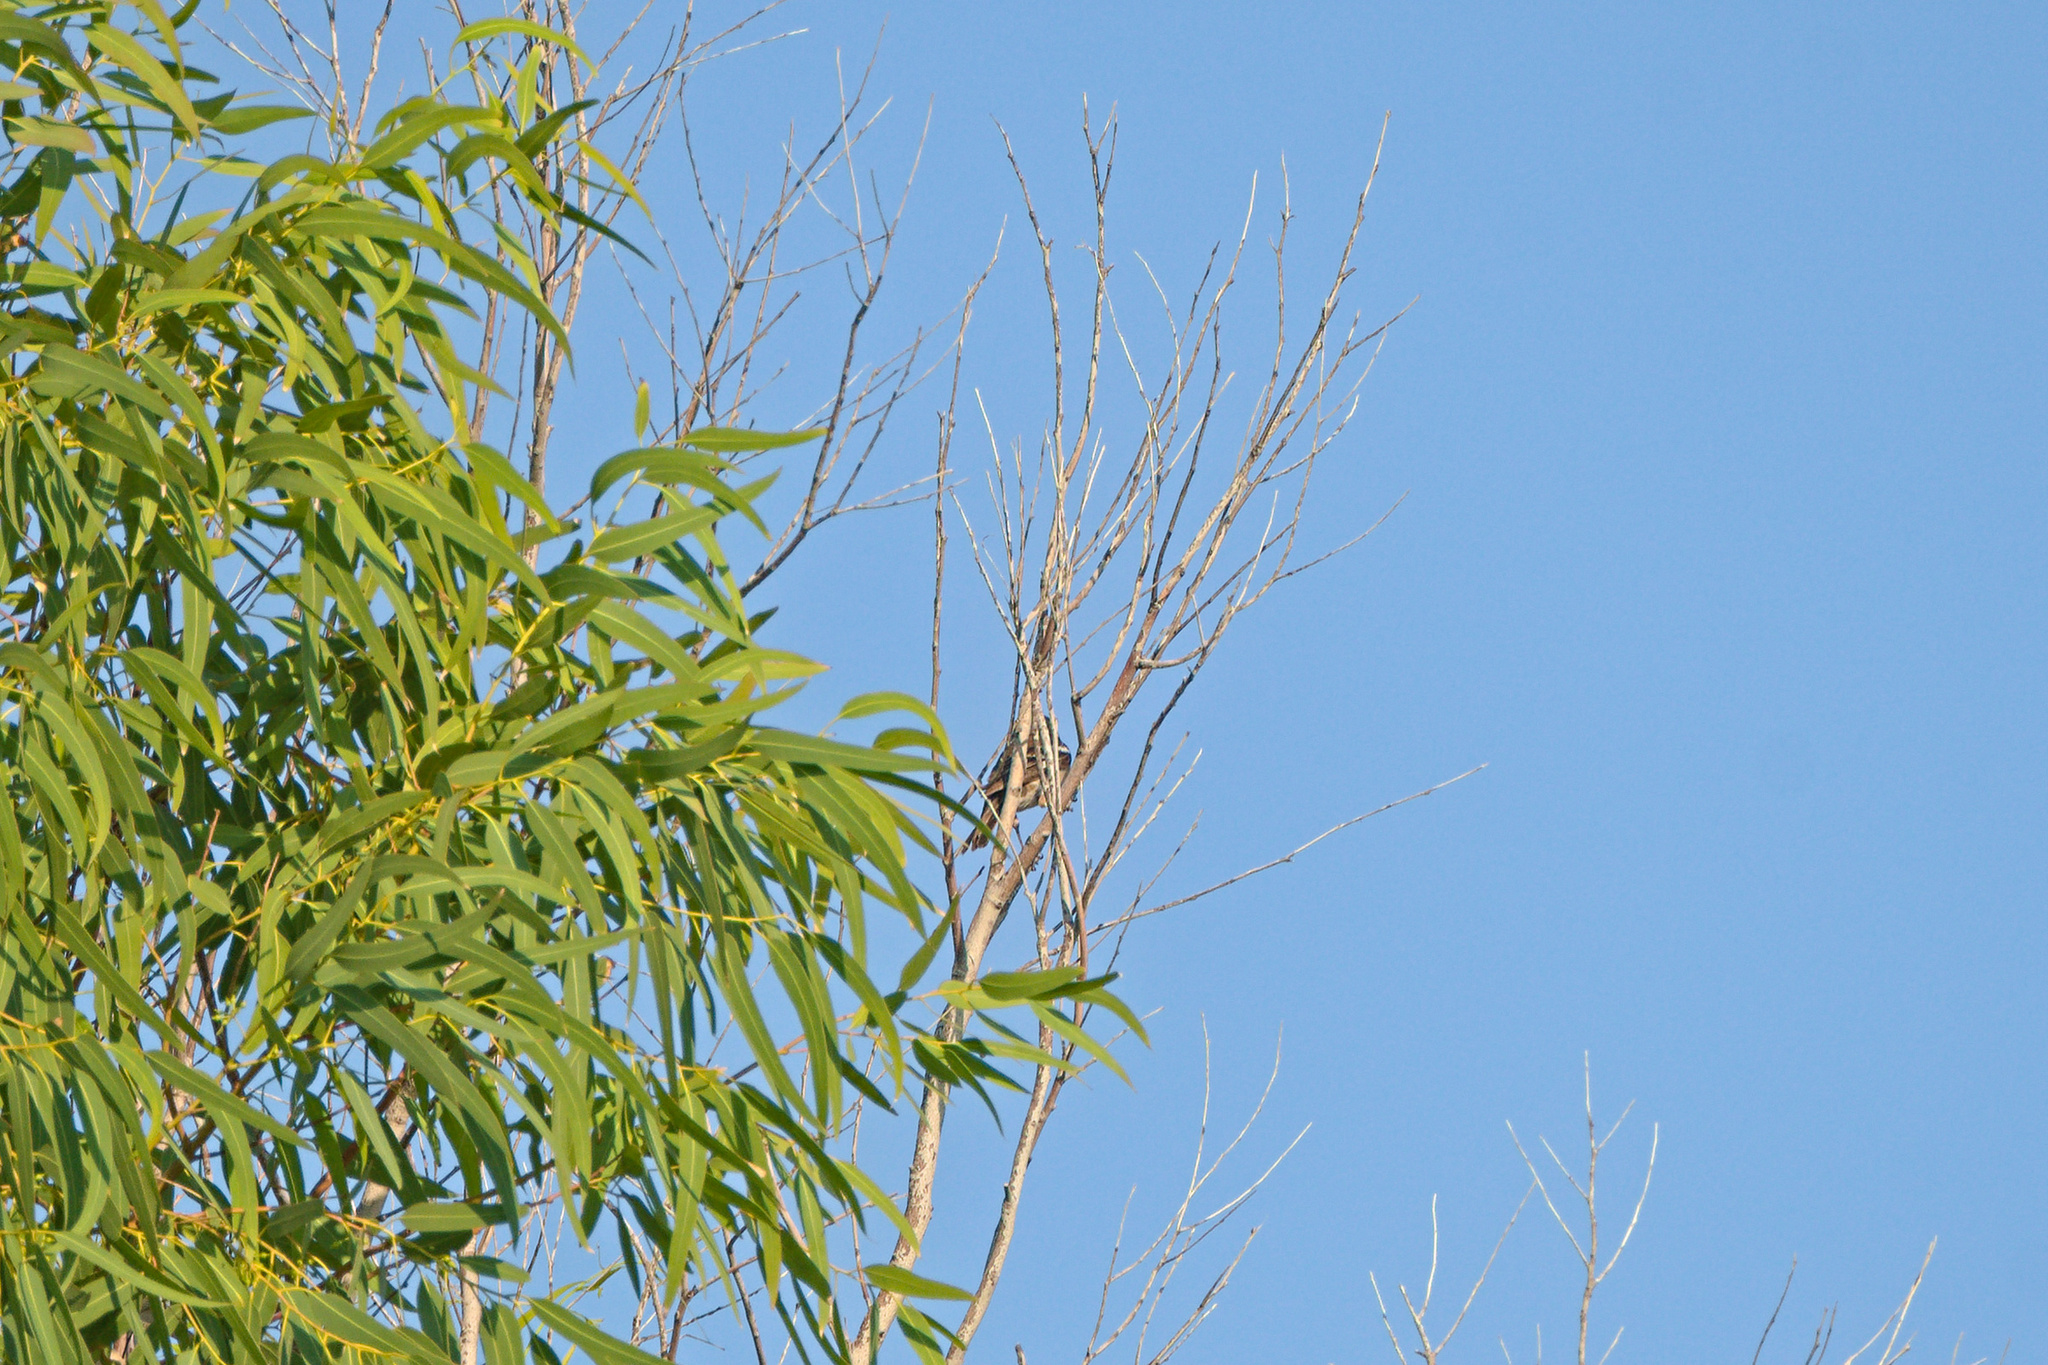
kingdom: Animalia
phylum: Chordata
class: Aves
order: Passeriformes
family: Fringillidae
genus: Fringilla
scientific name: Fringilla coelebs
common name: Common chaffinch
